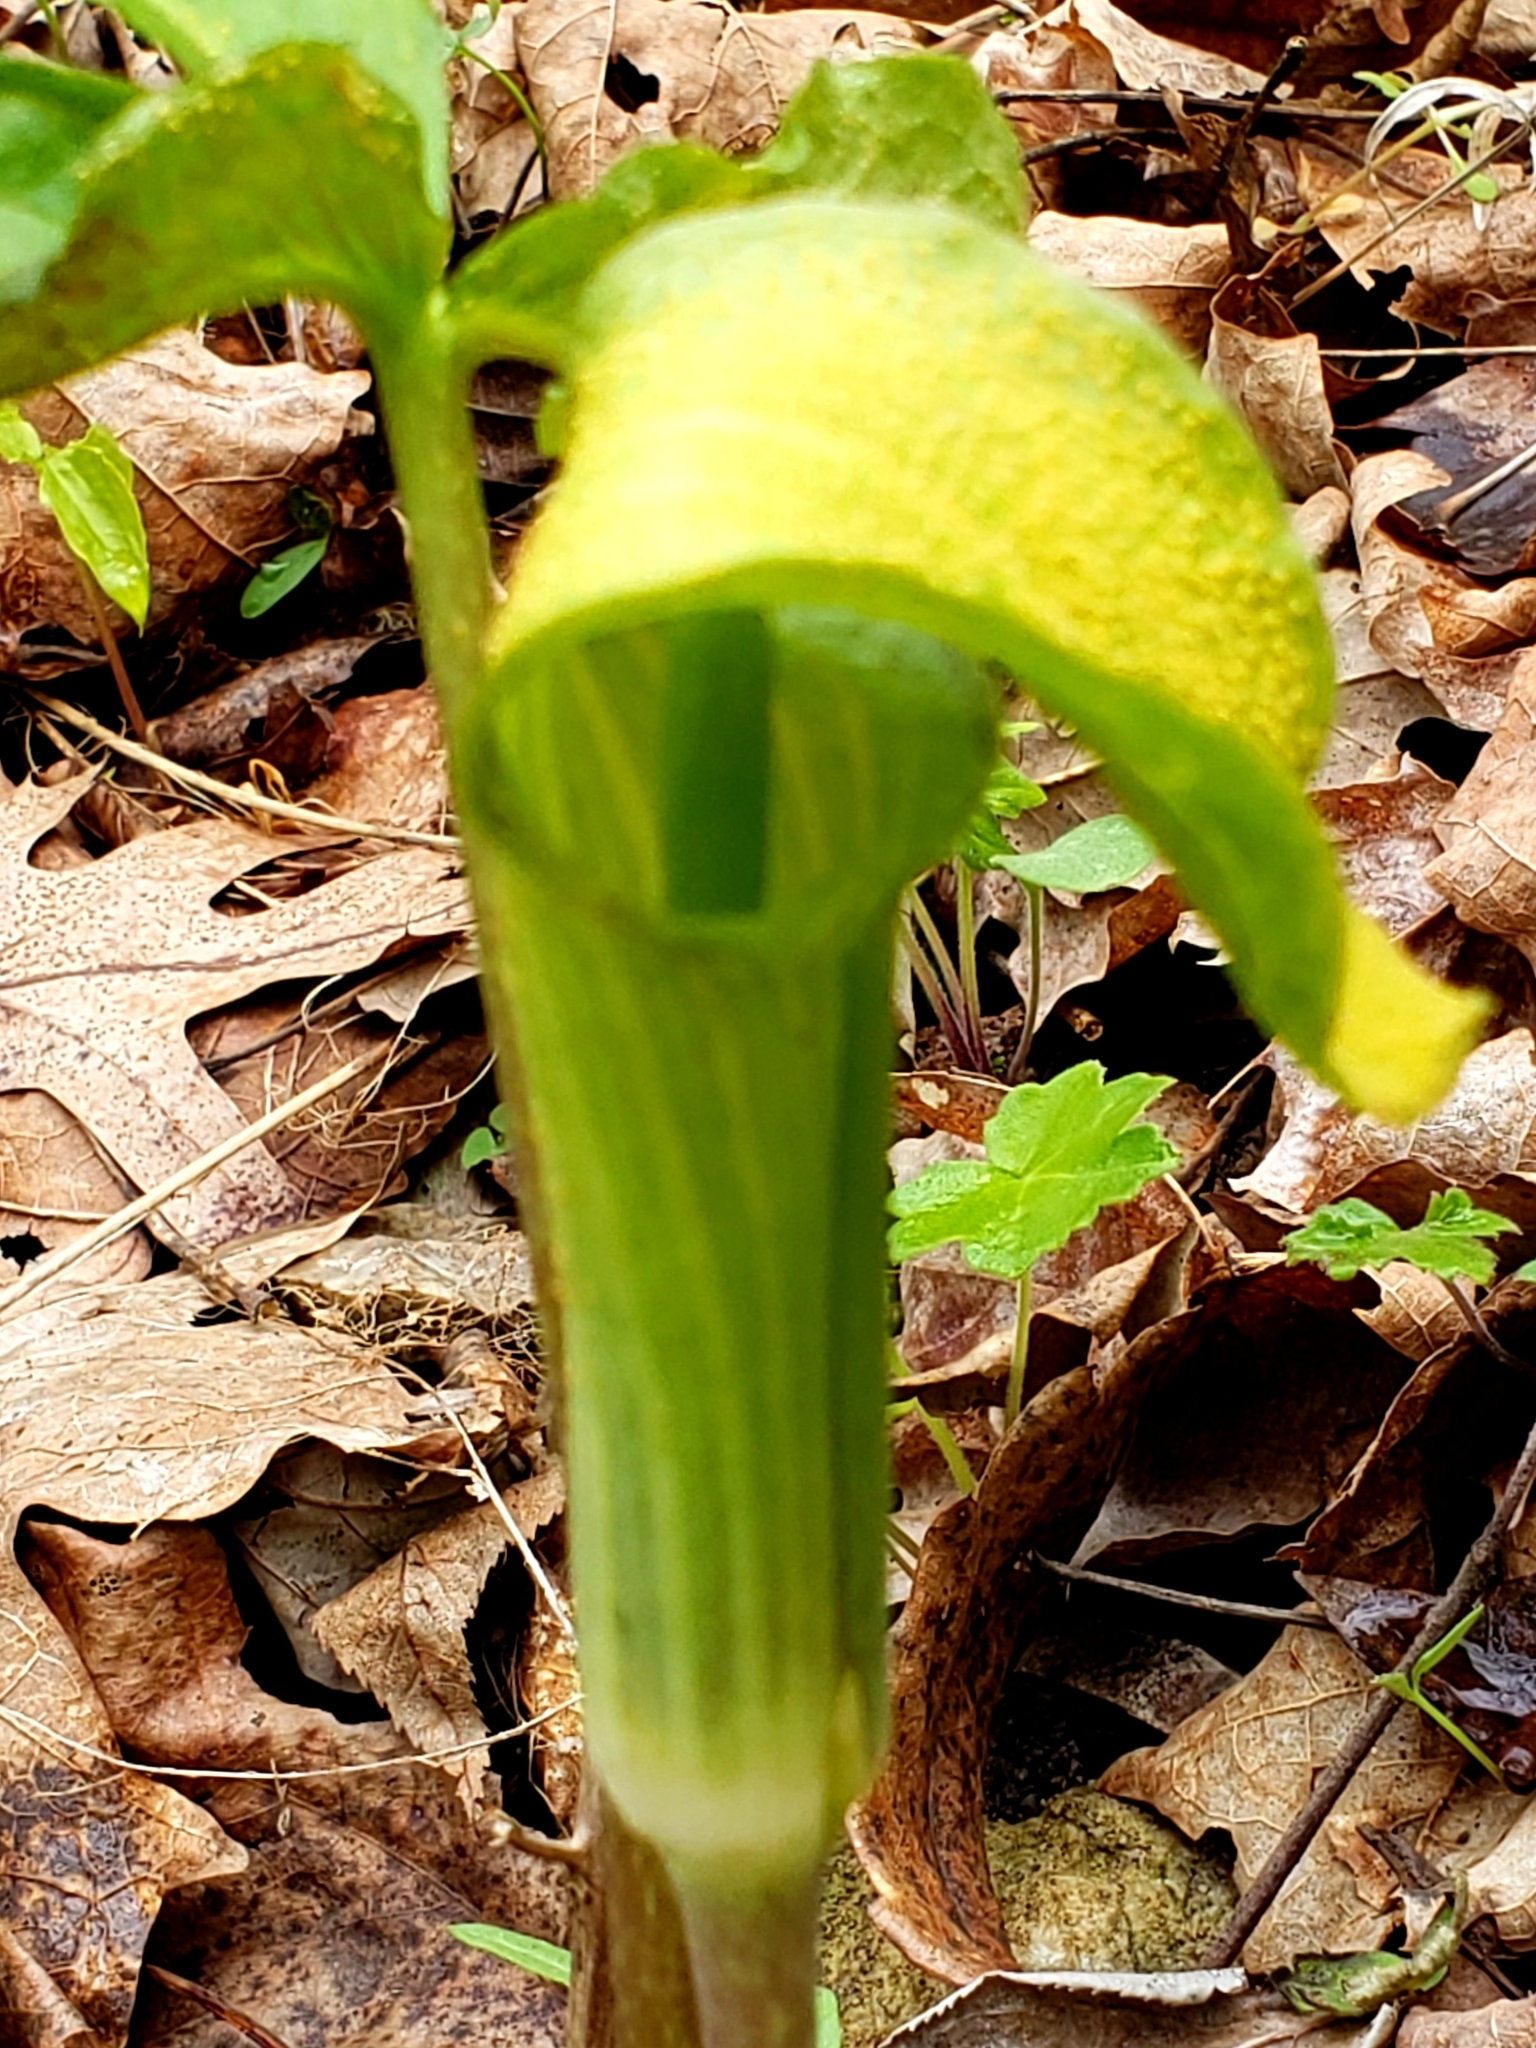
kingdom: Plantae
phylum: Tracheophyta
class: Liliopsida
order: Alismatales
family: Araceae
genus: Arisaema
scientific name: Arisaema triphyllum
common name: Jack-in-the-pulpit
